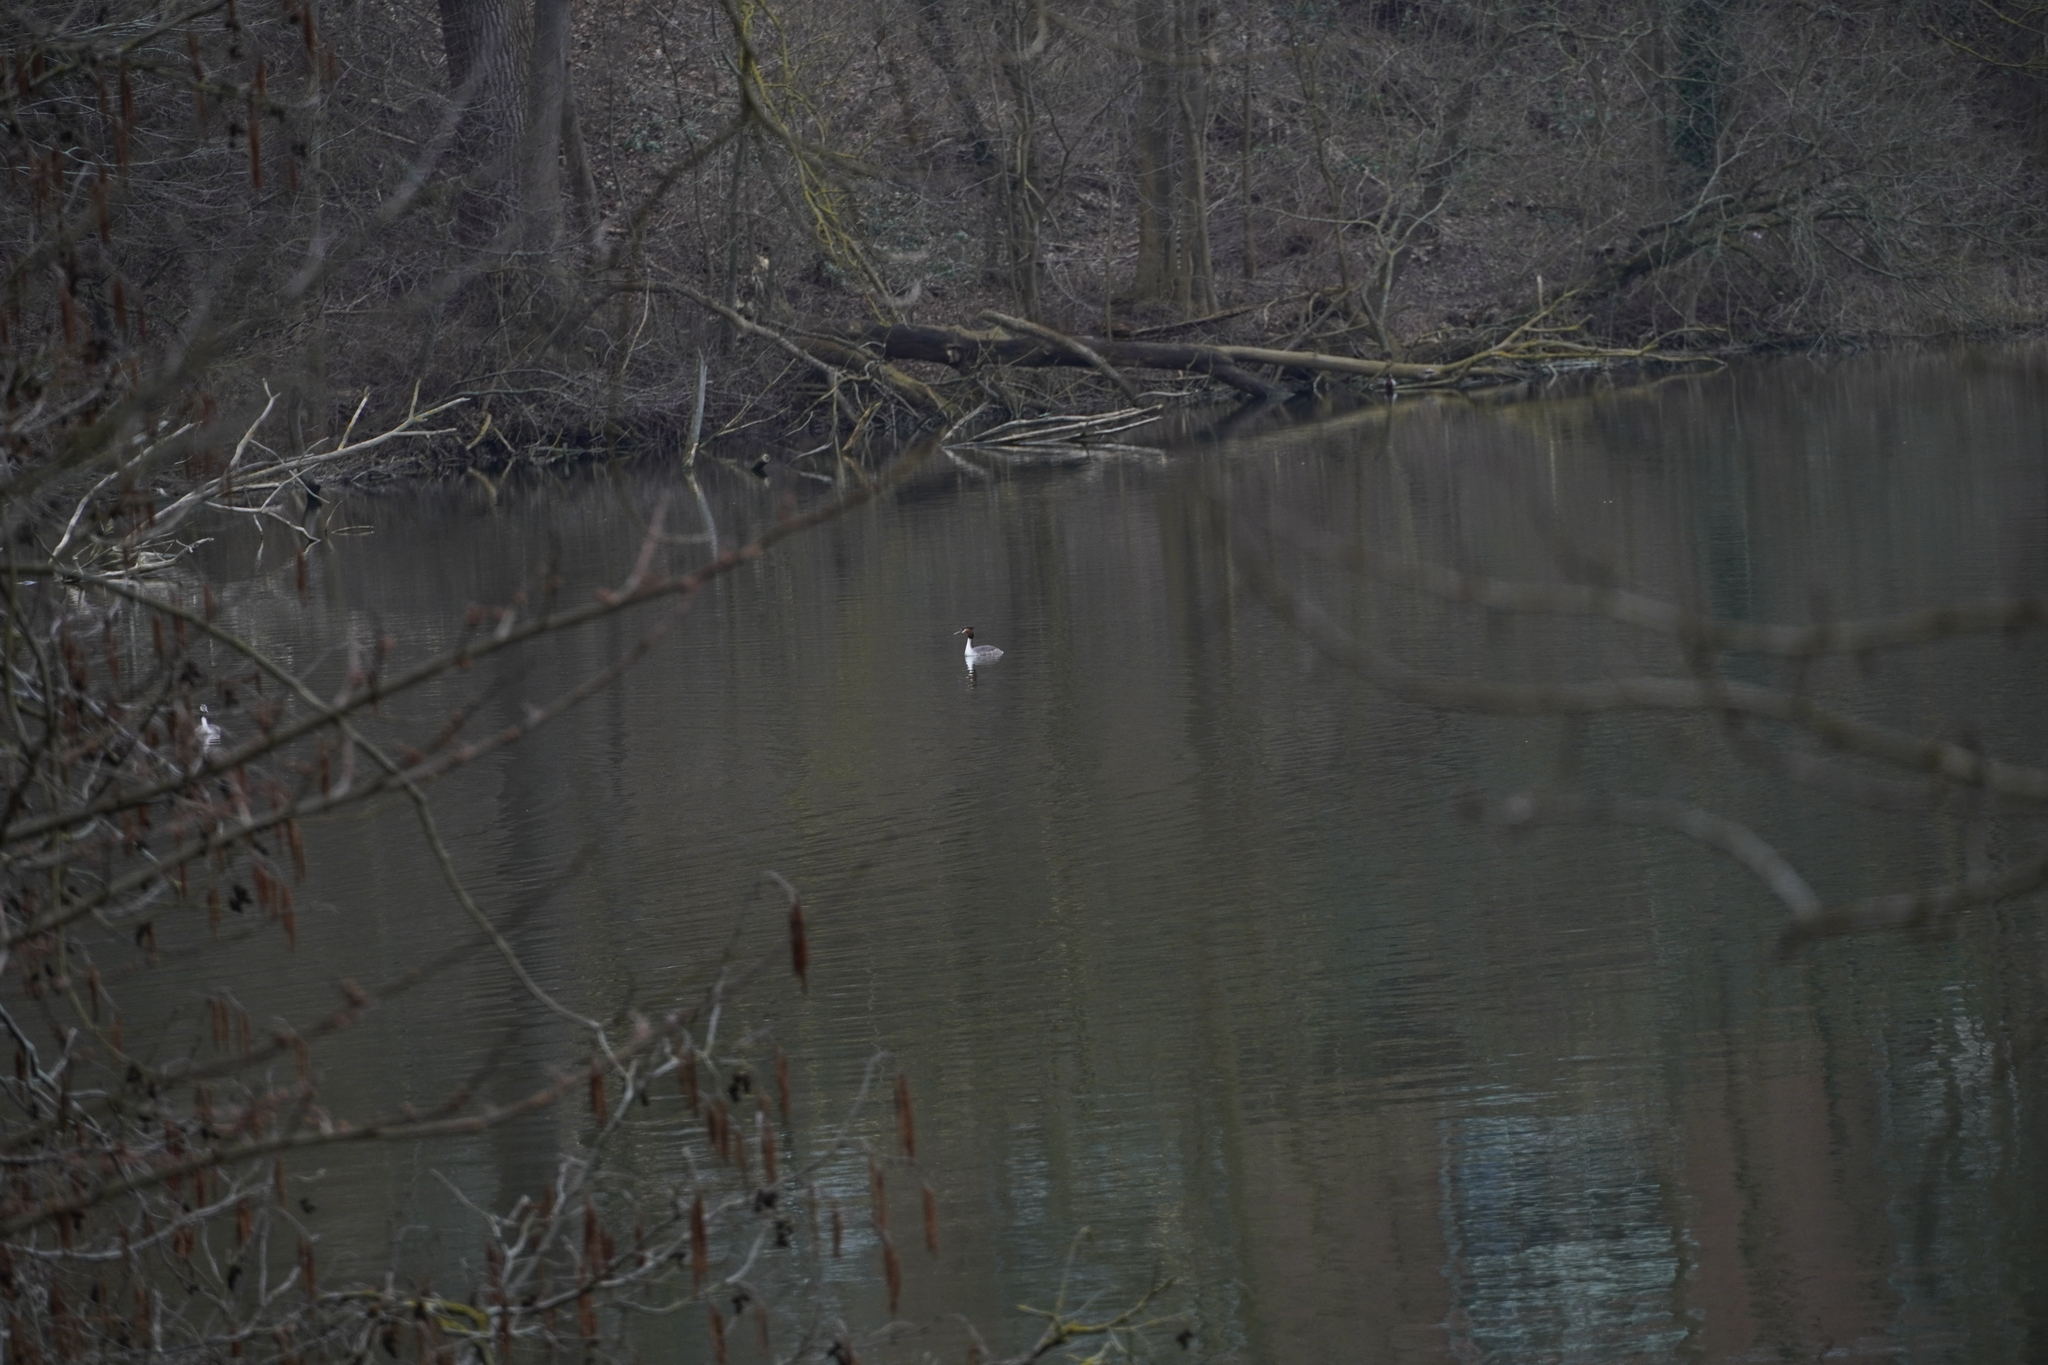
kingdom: Animalia
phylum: Chordata
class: Aves
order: Podicipediformes
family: Podicipedidae
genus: Podiceps
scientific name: Podiceps cristatus
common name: Great crested grebe
